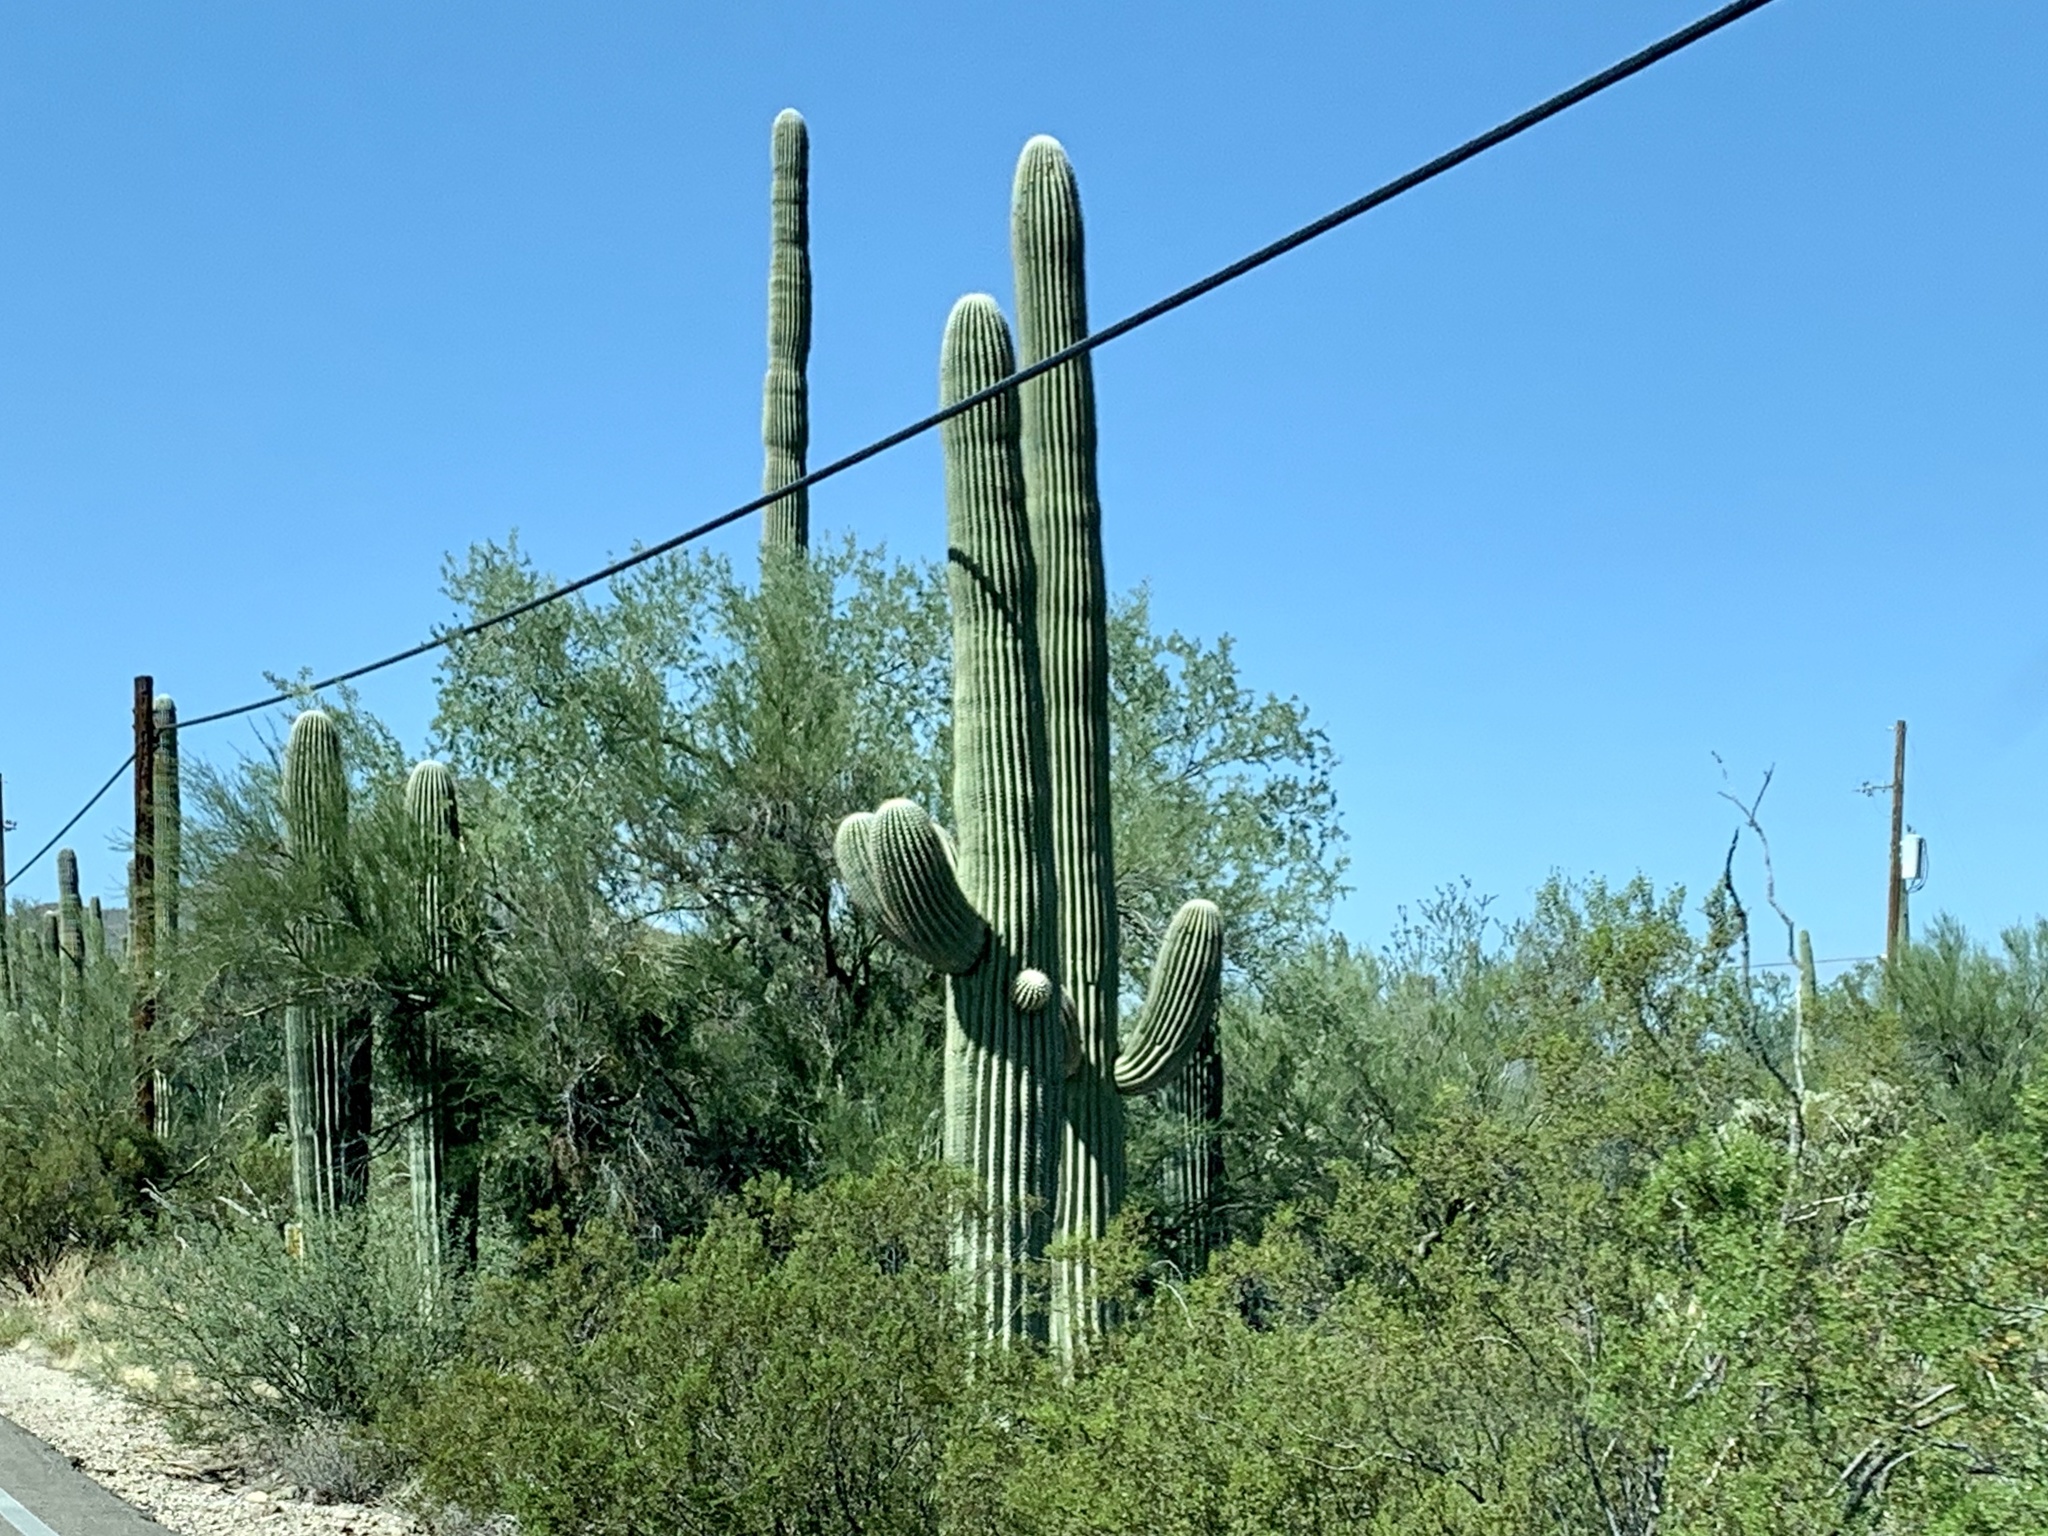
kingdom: Plantae
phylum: Tracheophyta
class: Magnoliopsida
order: Caryophyllales
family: Cactaceae
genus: Carnegiea
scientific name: Carnegiea gigantea
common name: Saguaro
